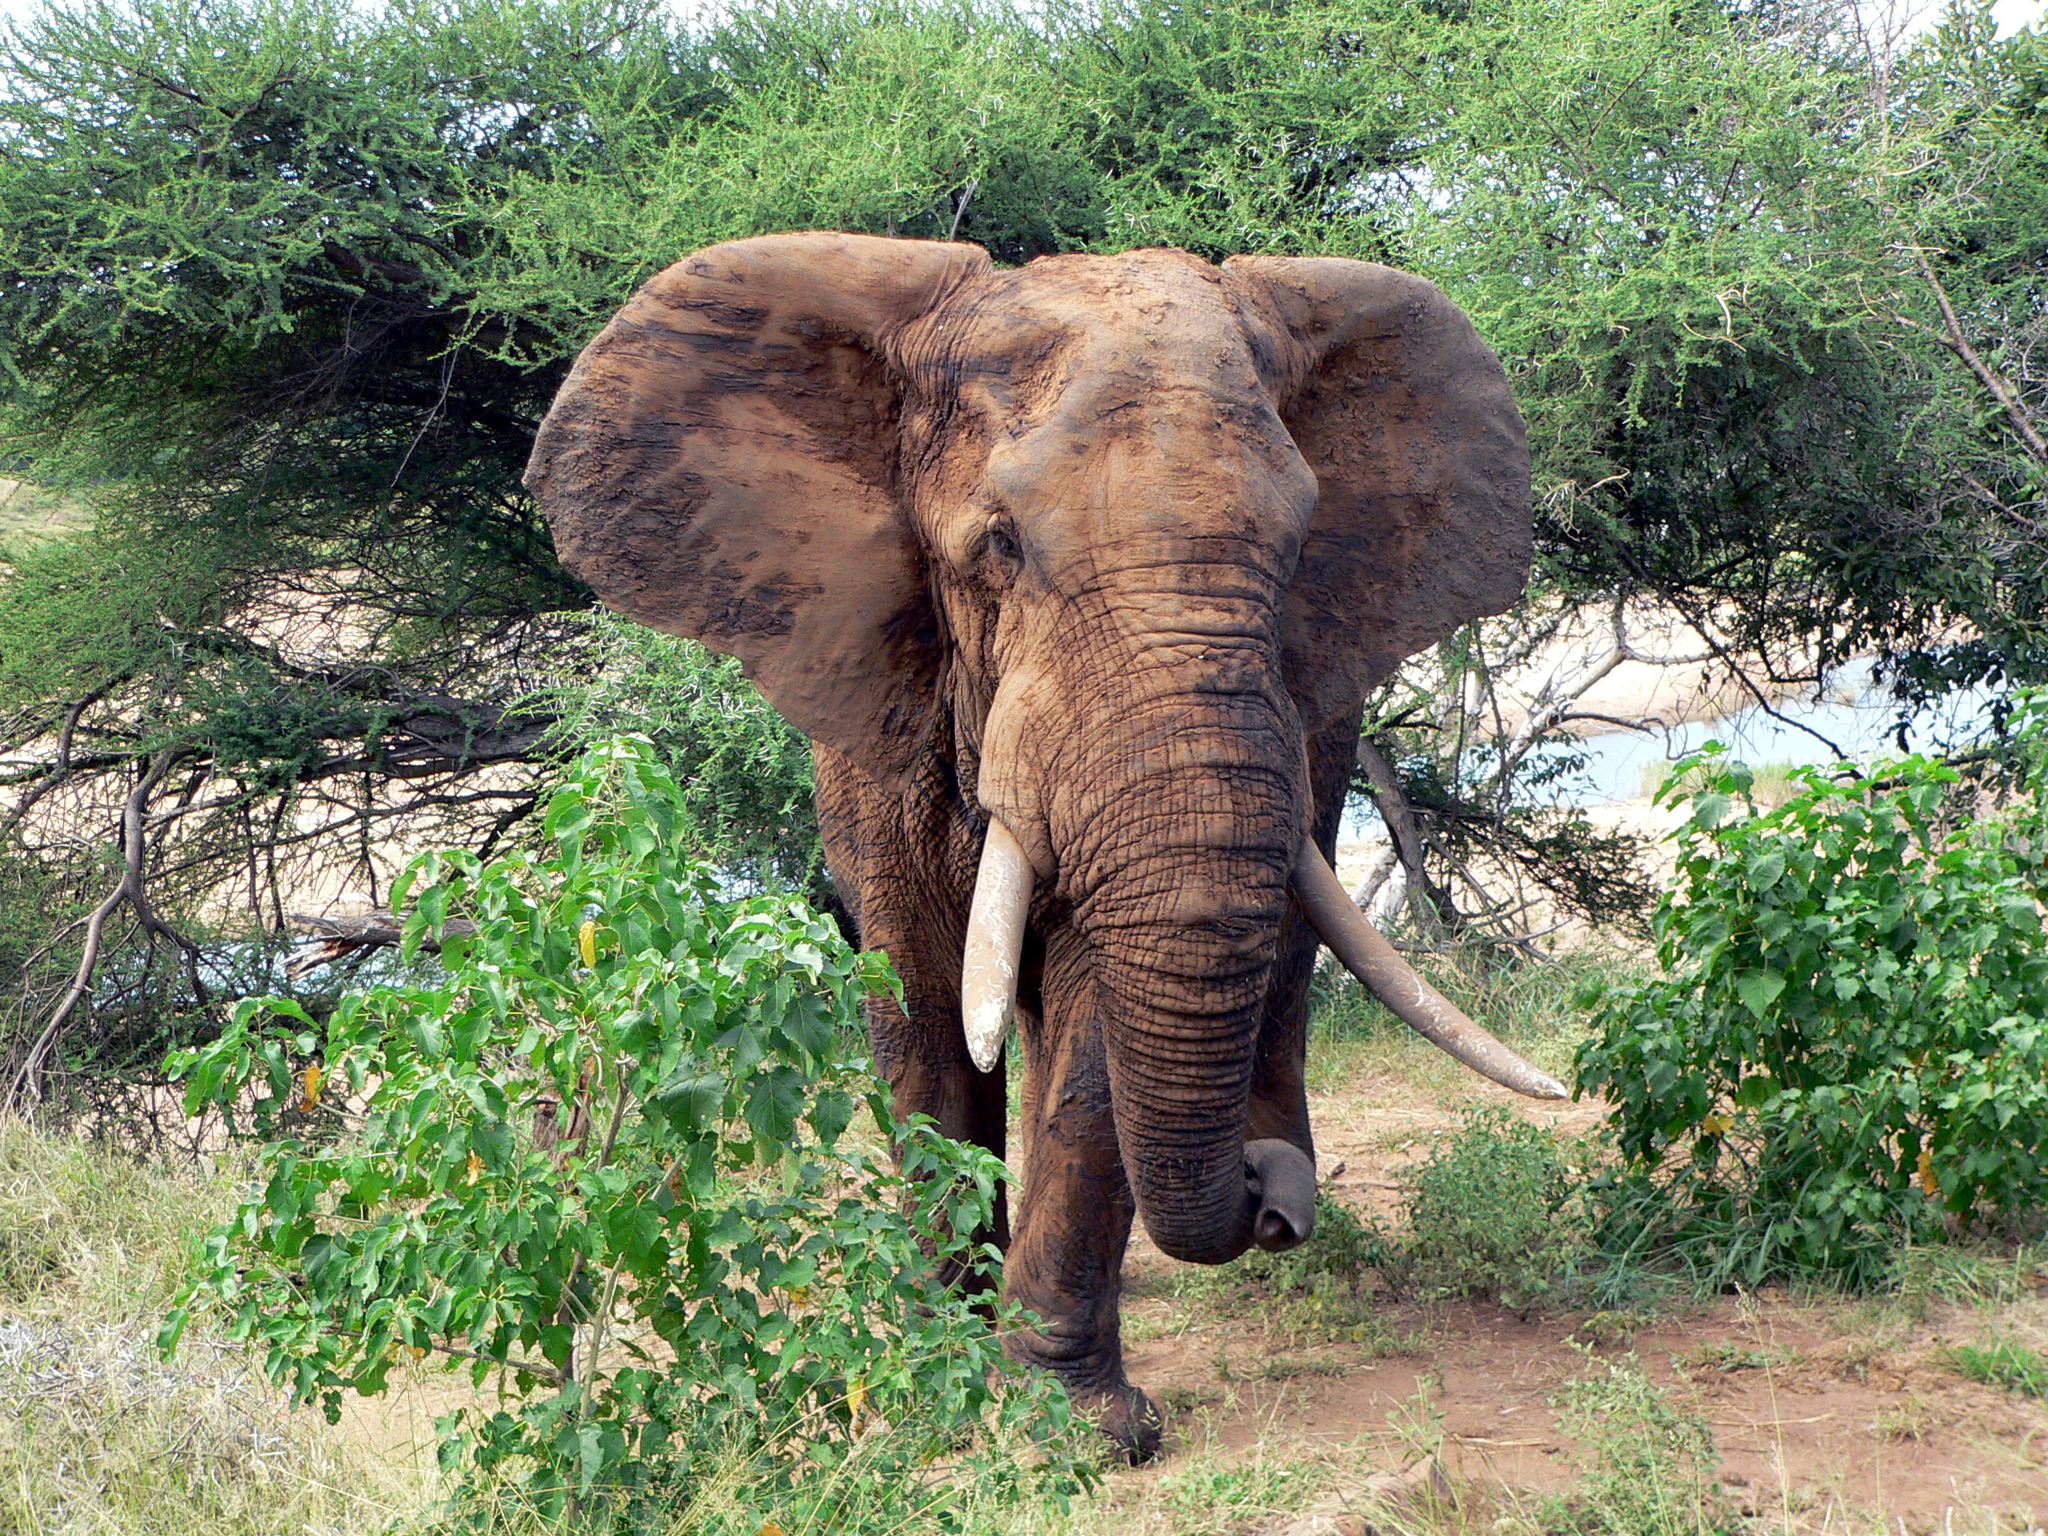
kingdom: Animalia
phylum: Chordata
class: Mammalia
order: Proboscidea
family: Elephantidae
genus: Loxodonta
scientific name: Loxodonta africana
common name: African elephant
